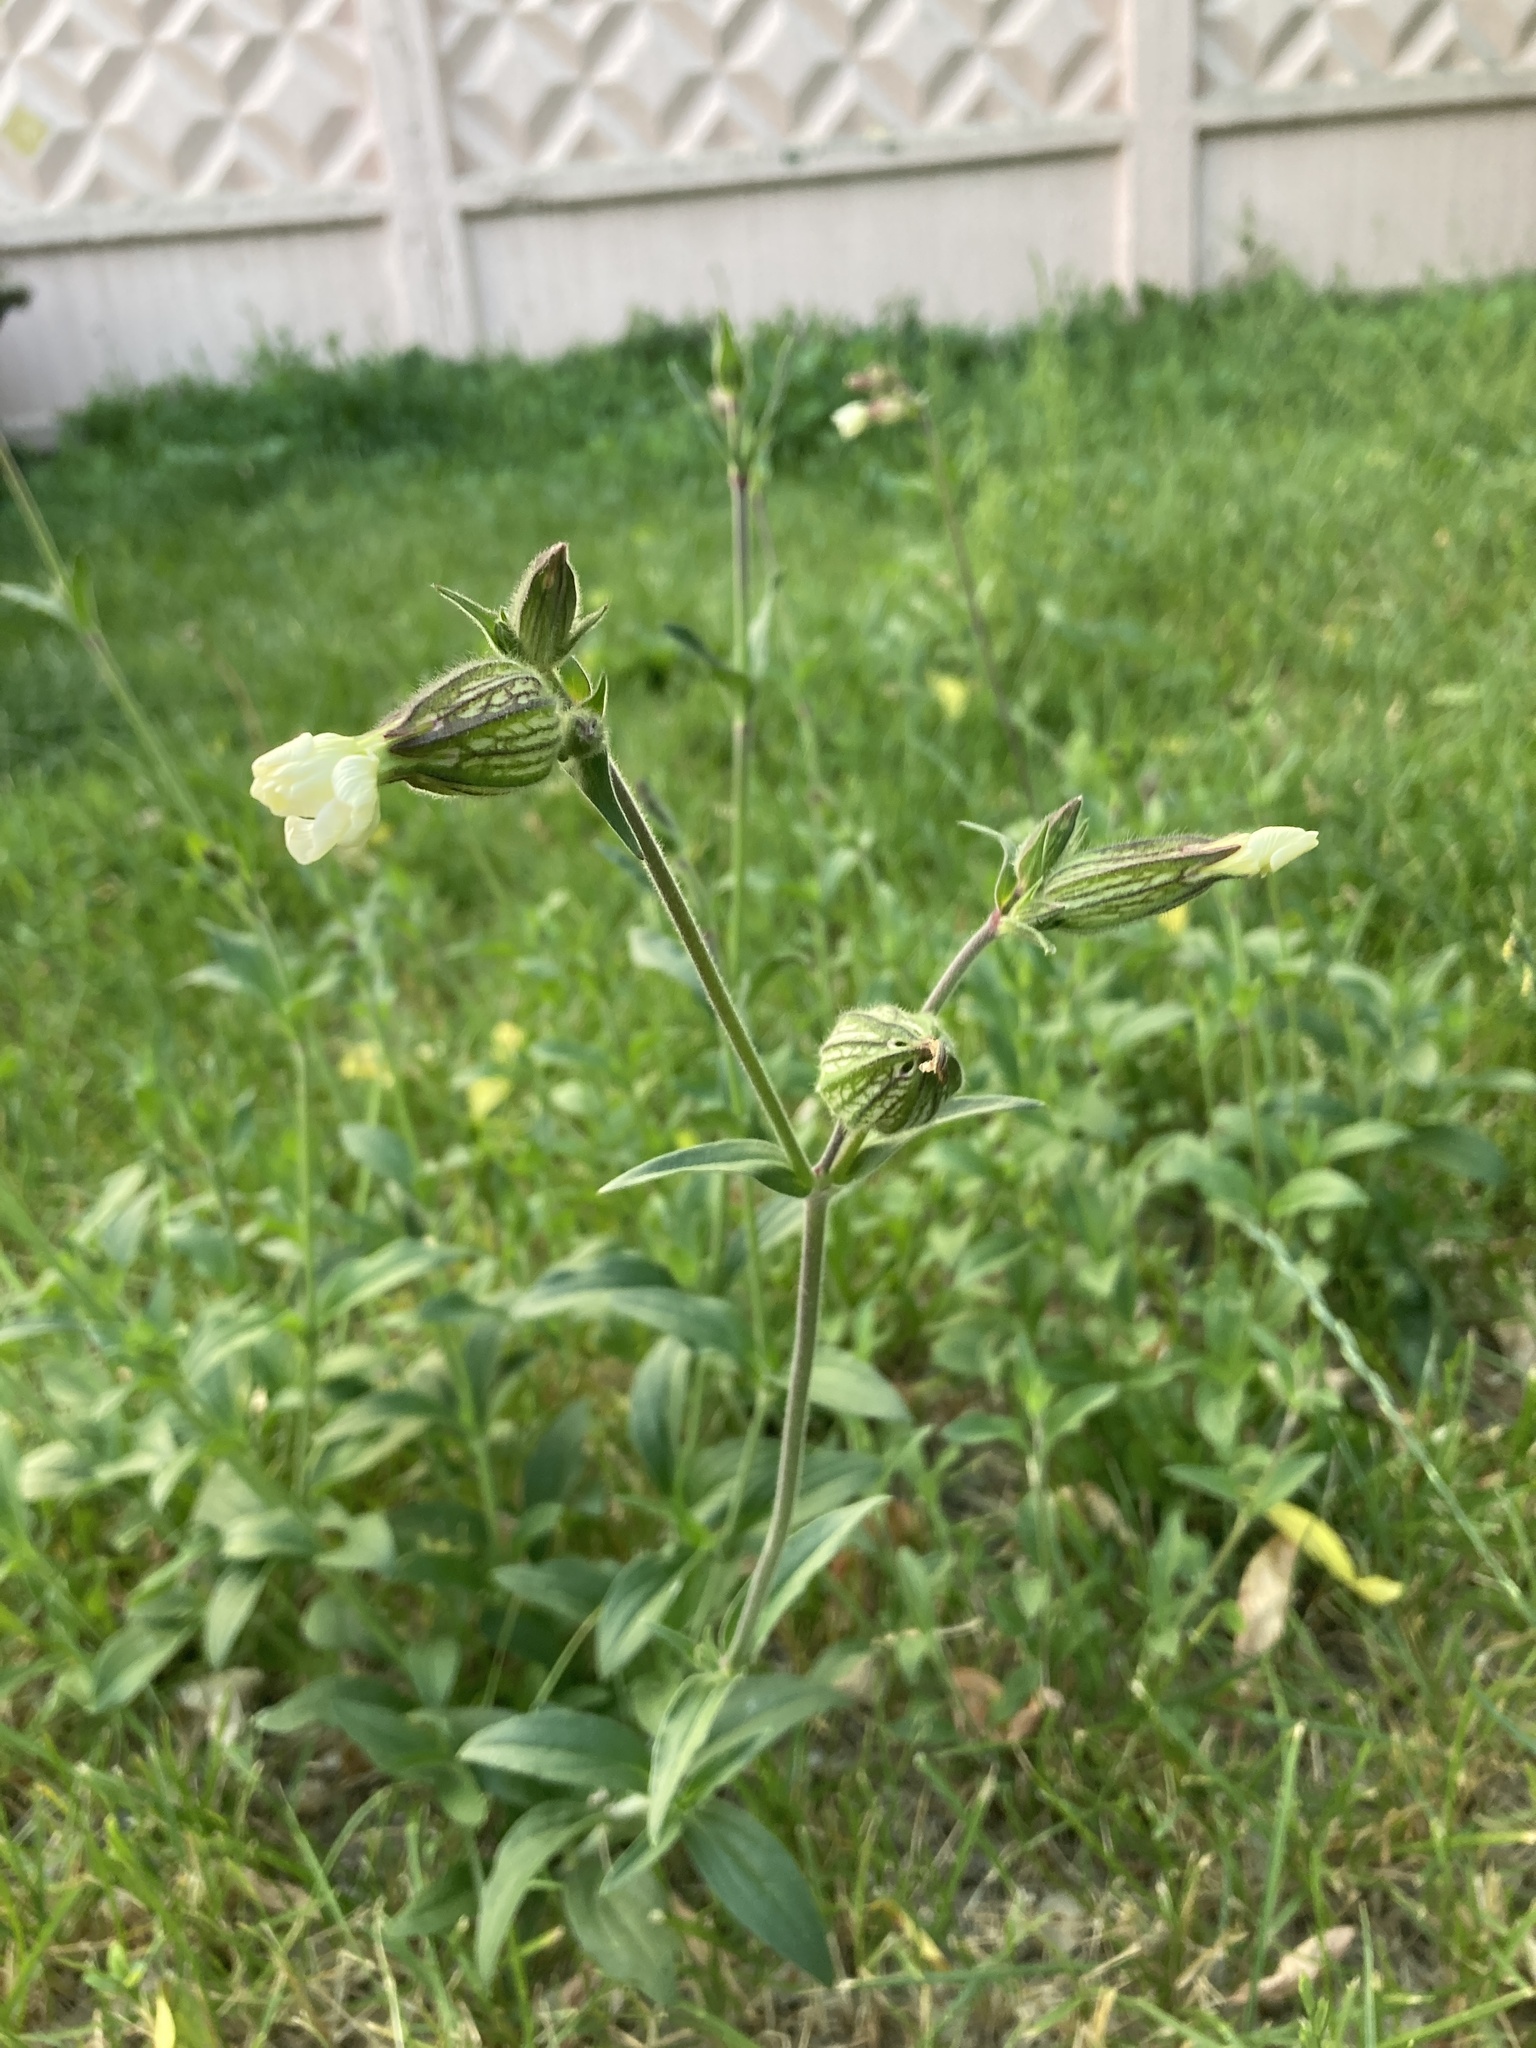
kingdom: Plantae
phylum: Tracheophyta
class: Magnoliopsida
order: Caryophyllales
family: Caryophyllaceae
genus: Silene
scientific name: Silene latifolia
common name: White campion
